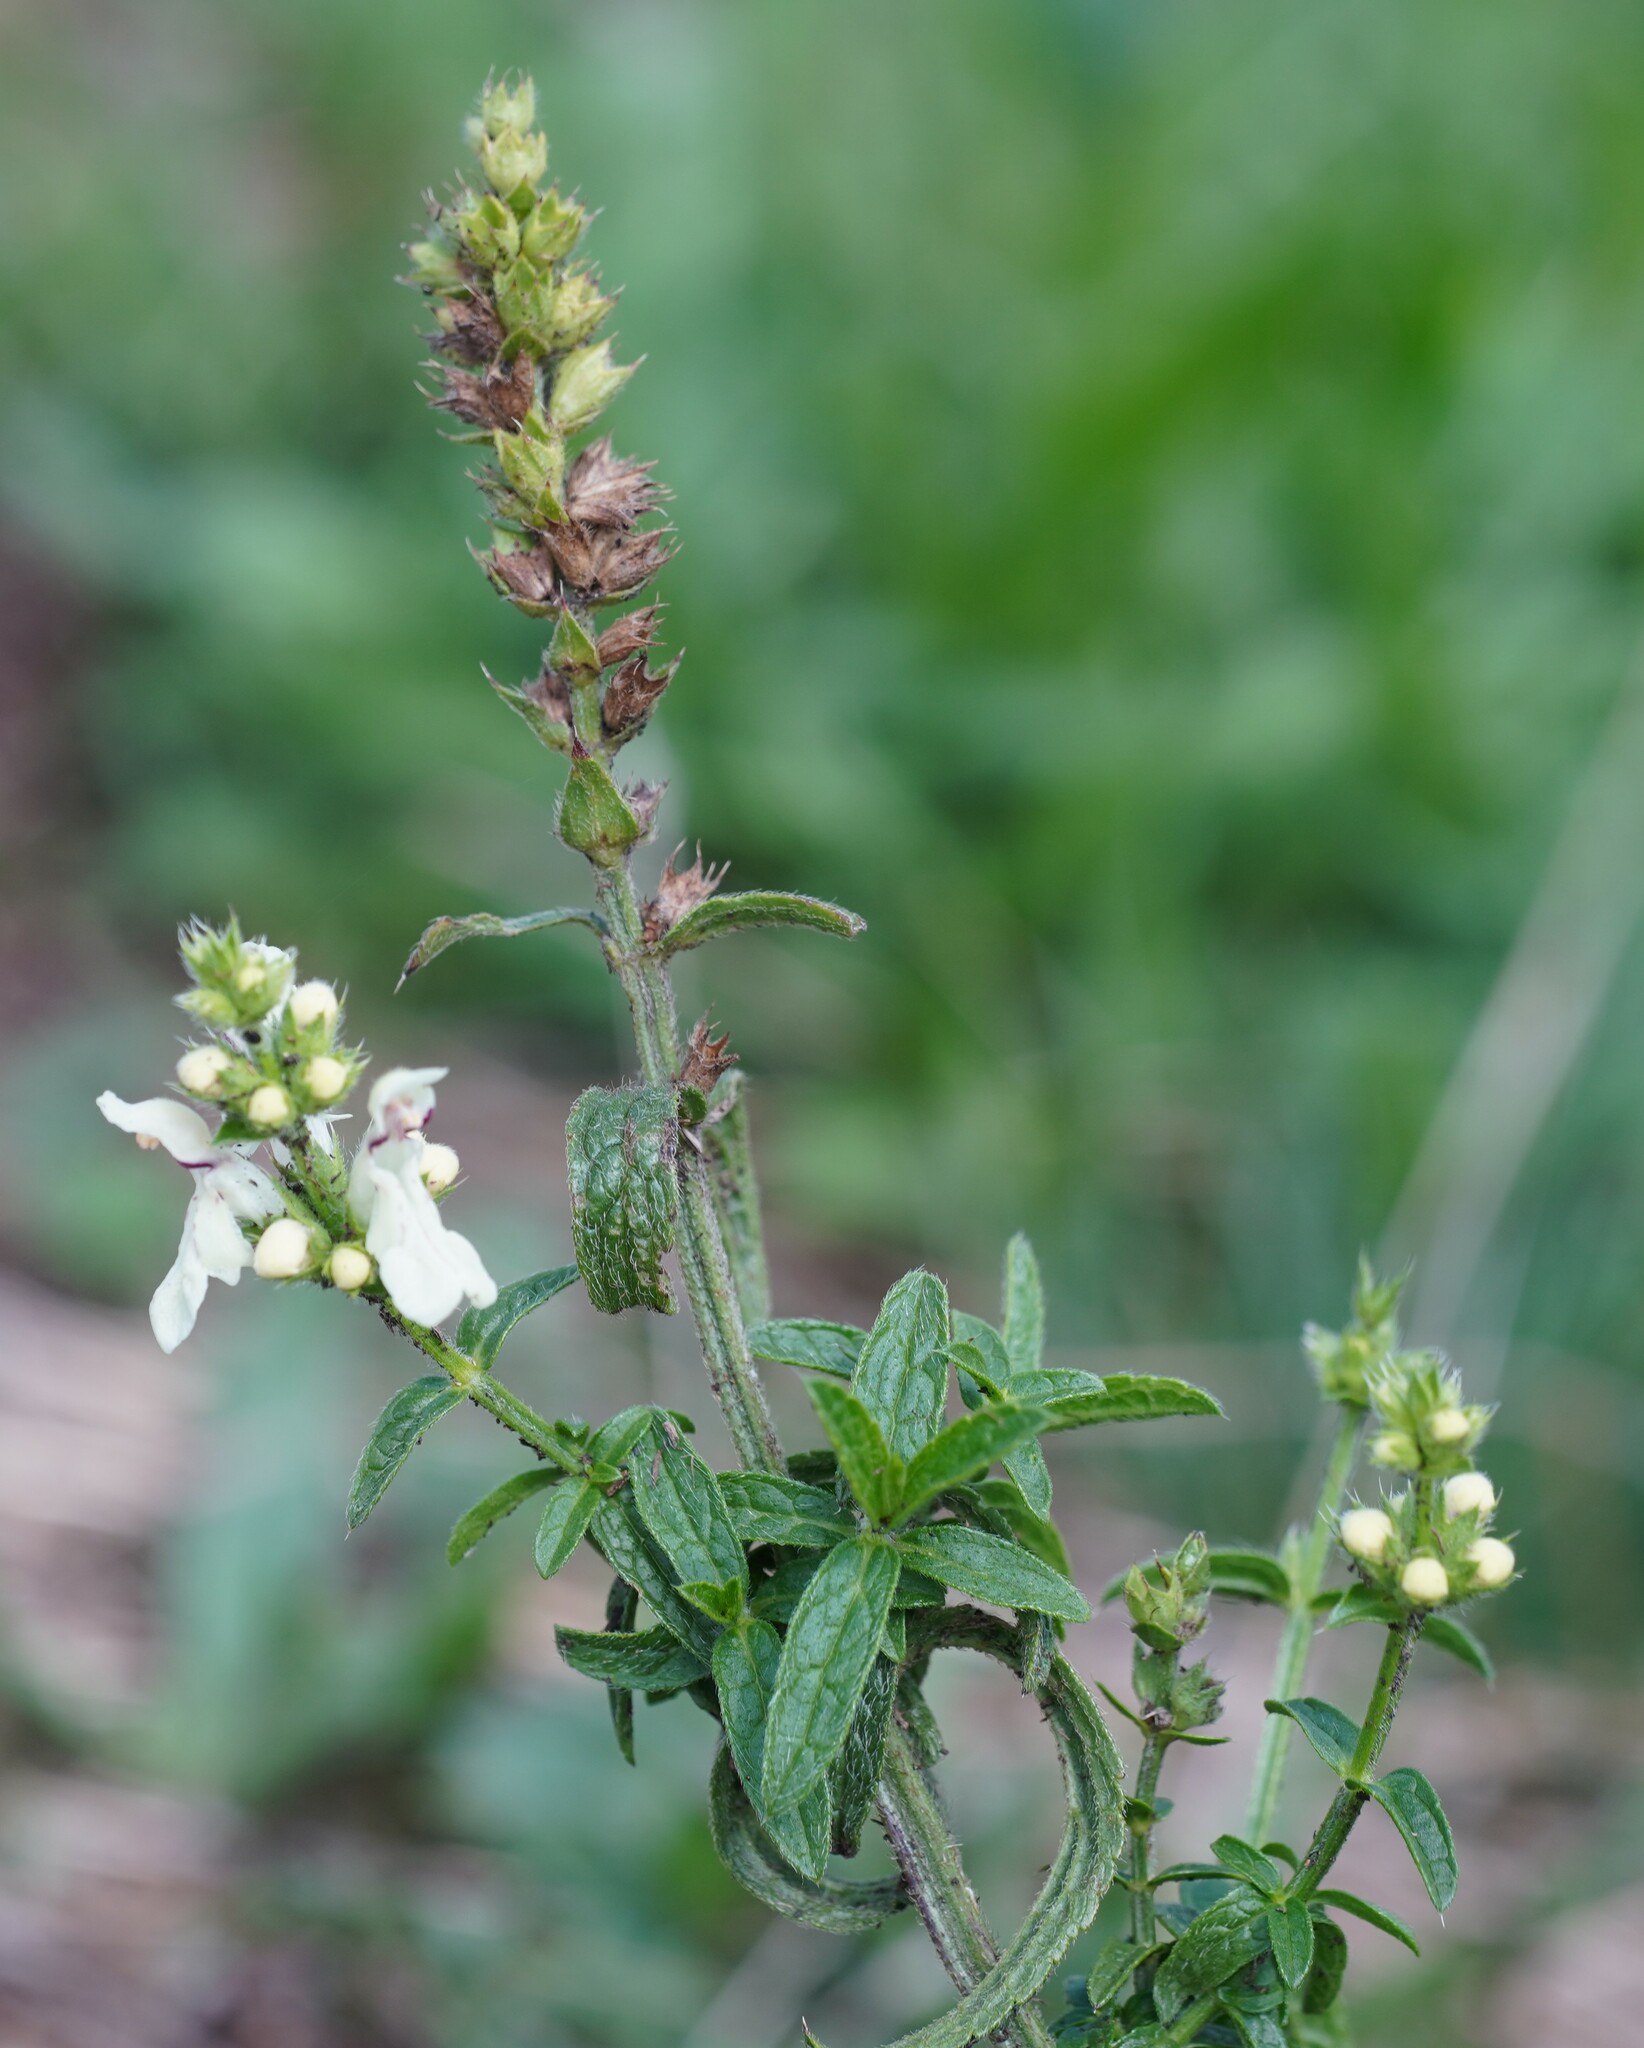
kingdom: Plantae
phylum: Tracheophyta
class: Magnoliopsida
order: Lamiales
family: Lamiaceae
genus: Stachys
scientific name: Stachys recta
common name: Perennial yellow-woundwort
